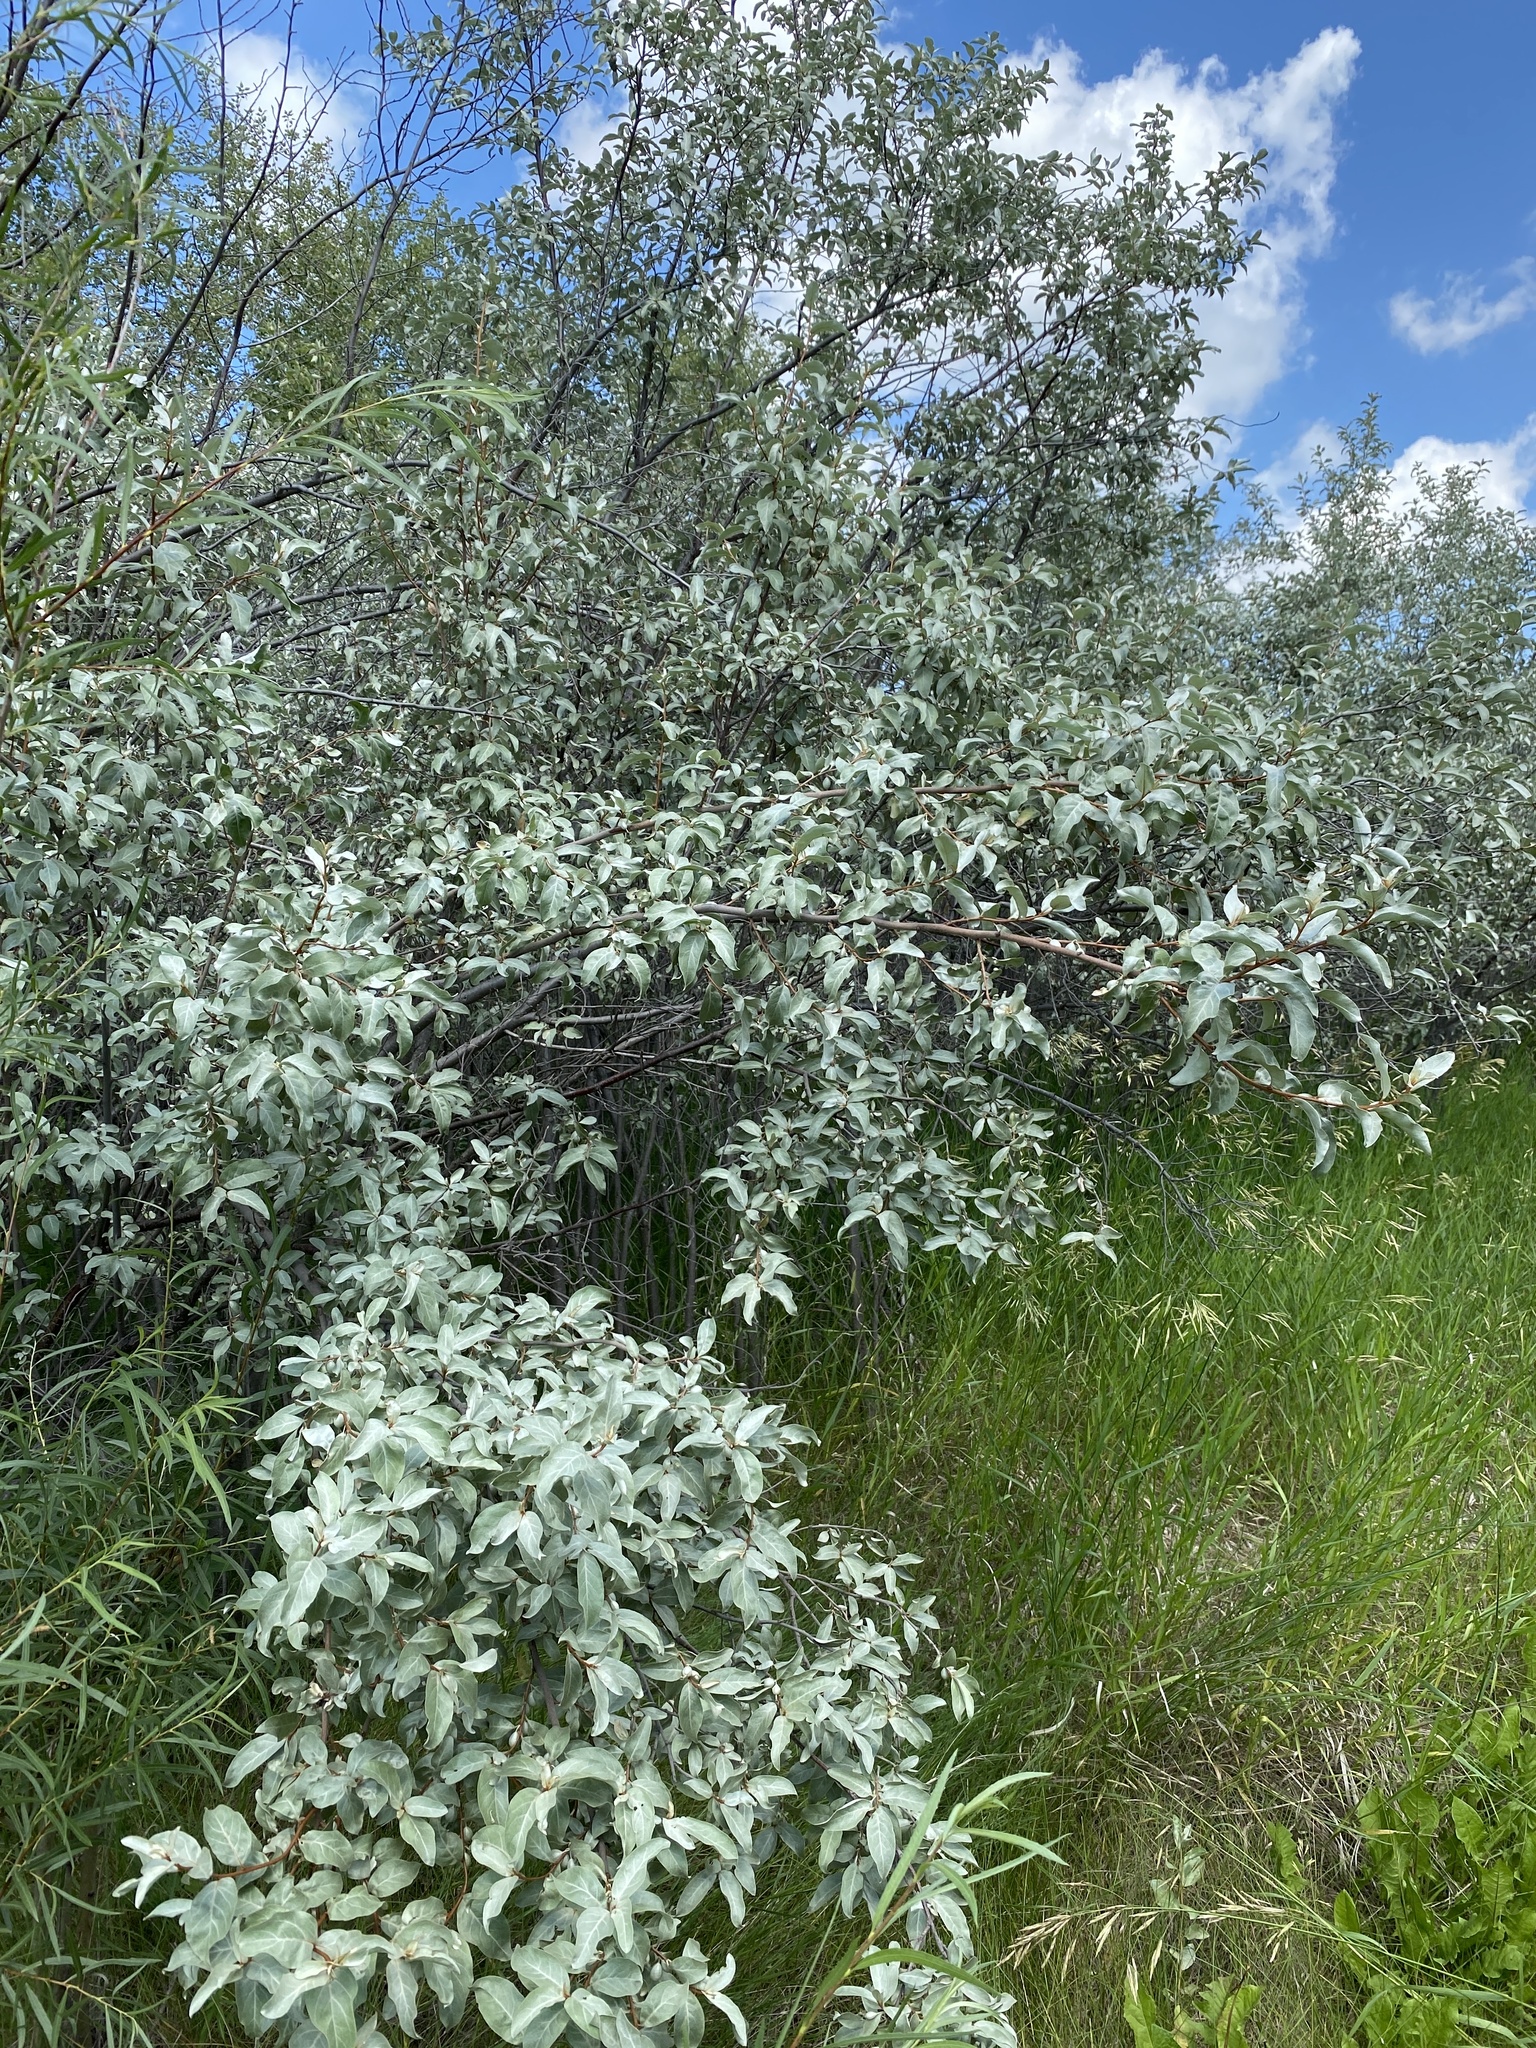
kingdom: Plantae
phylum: Tracheophyta
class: Magnoliopsida
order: Rosales
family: Elaeagnaceae
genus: Elaeagnus
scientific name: Elaeagnus commutata
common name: Silverberry
